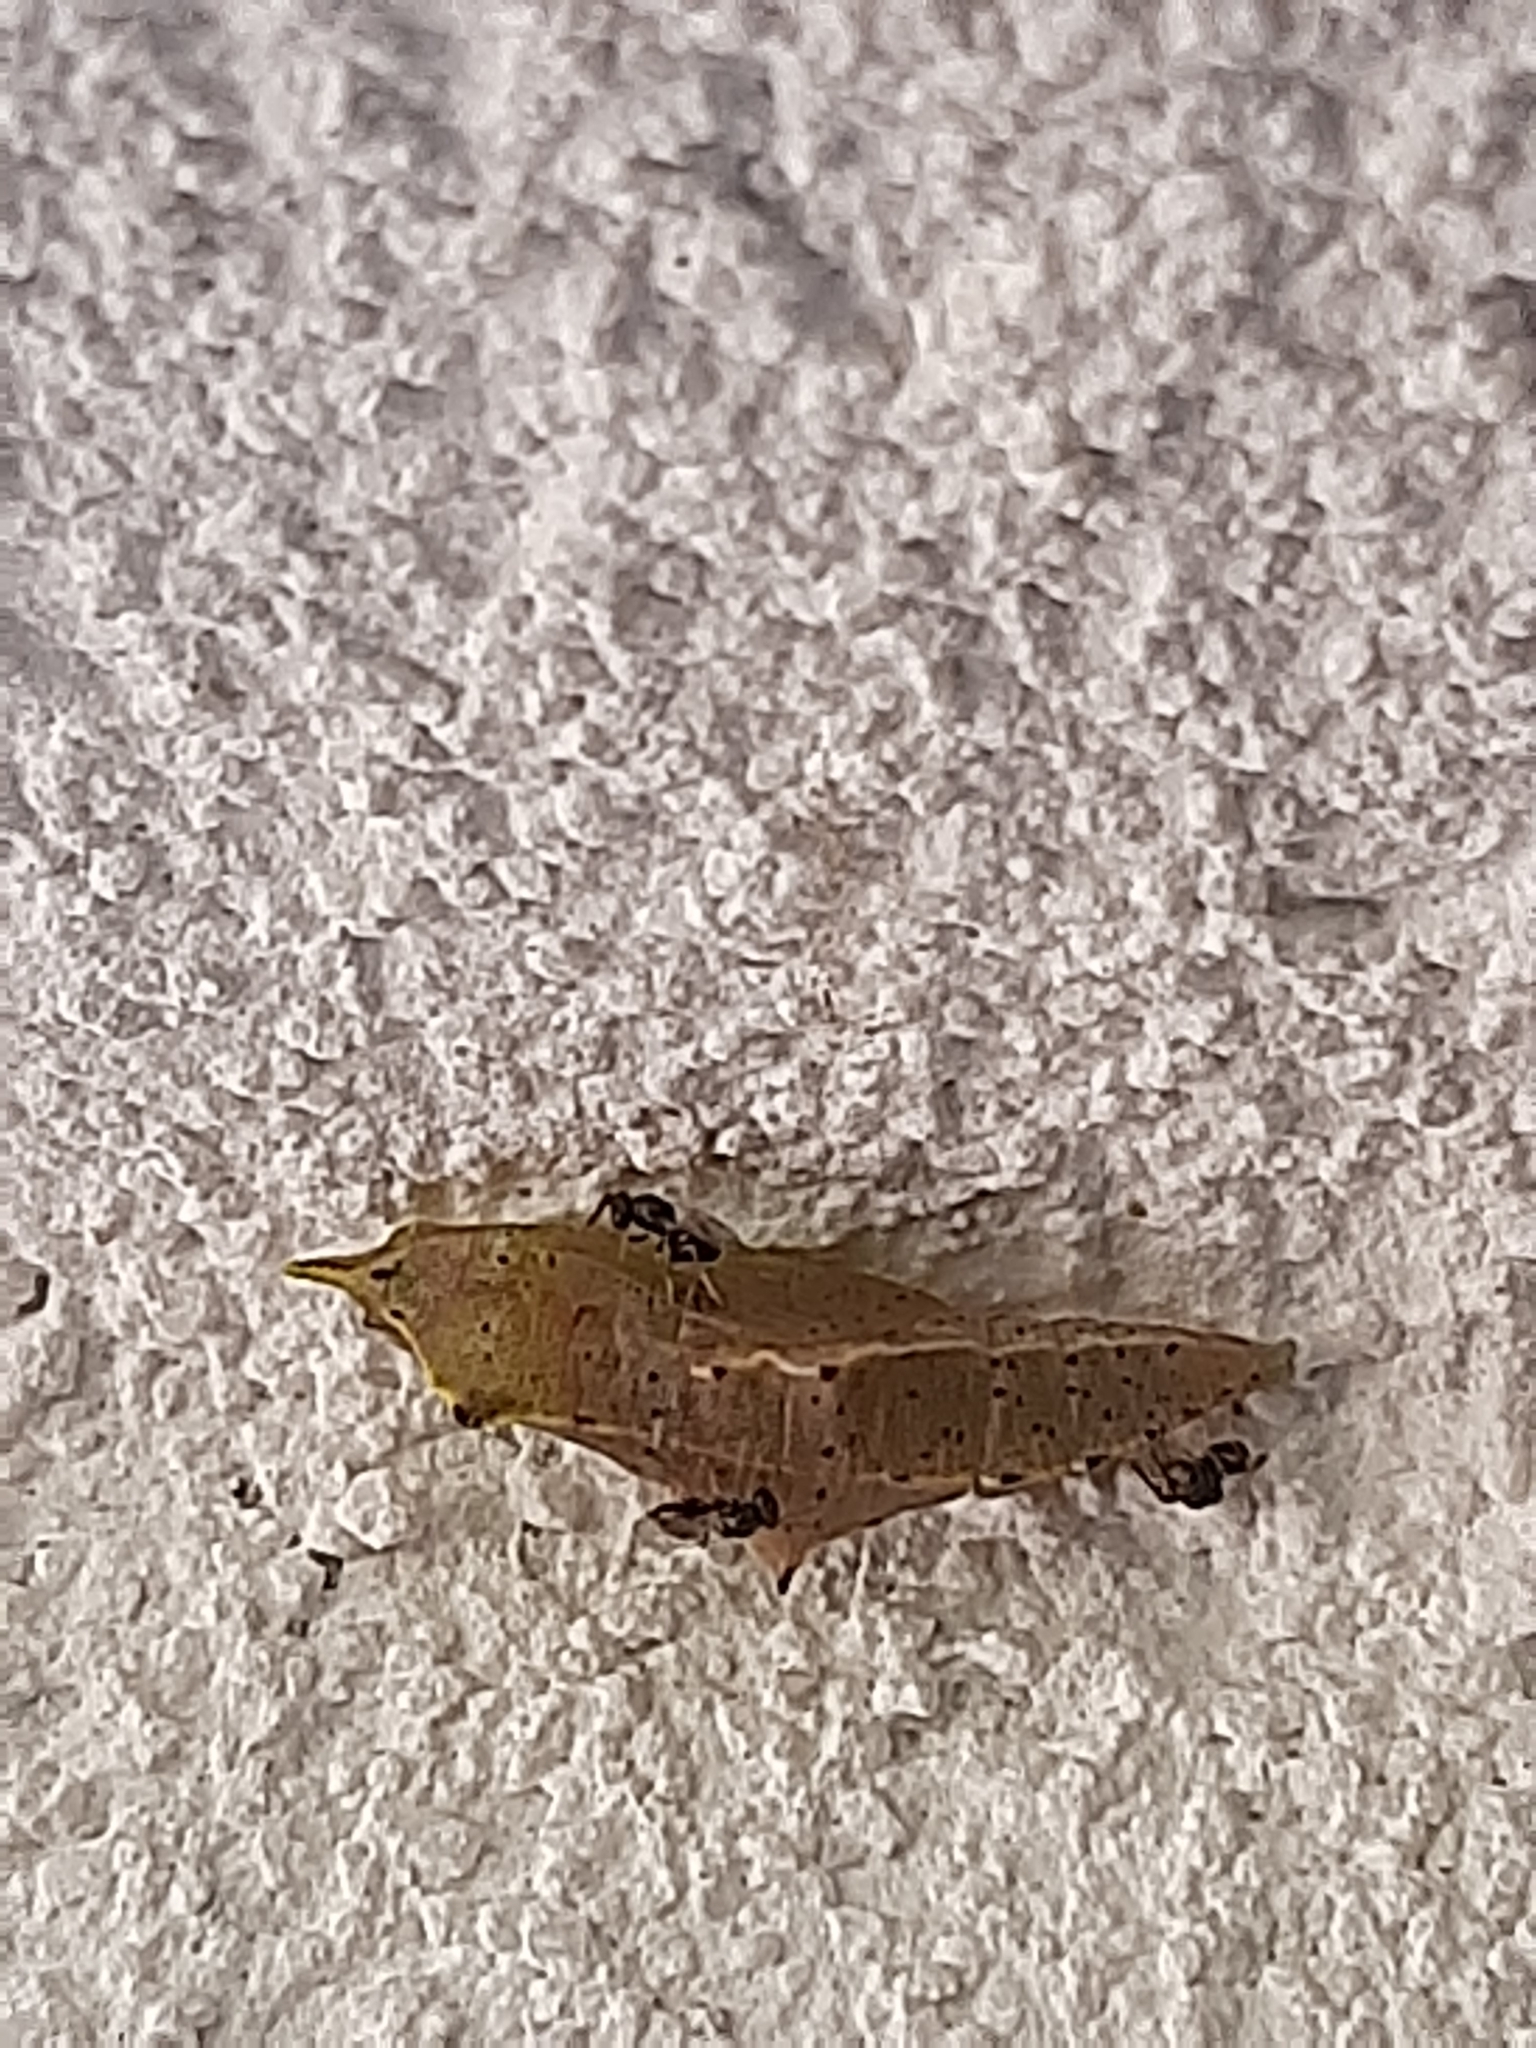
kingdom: Animalia
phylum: Arthropoda
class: Insecta
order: Lepidoptera
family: Pieridae
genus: Pieris
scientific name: Pieris rapae
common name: Small white
